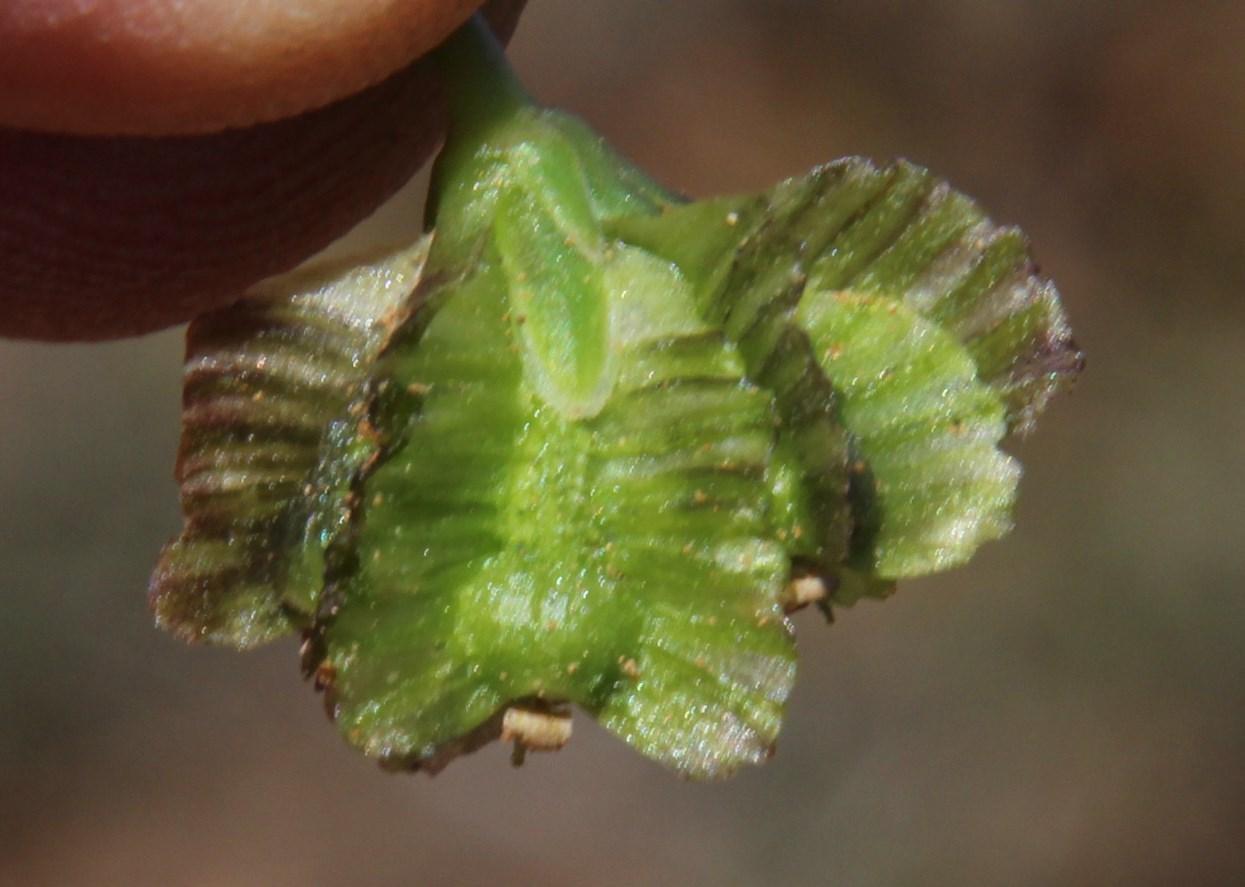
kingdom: Plantae
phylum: Tracheophyta
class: Magnoliopsida
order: Asterales
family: Asteraceae
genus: Osteospermum
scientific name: Osteospermum sinuatum
